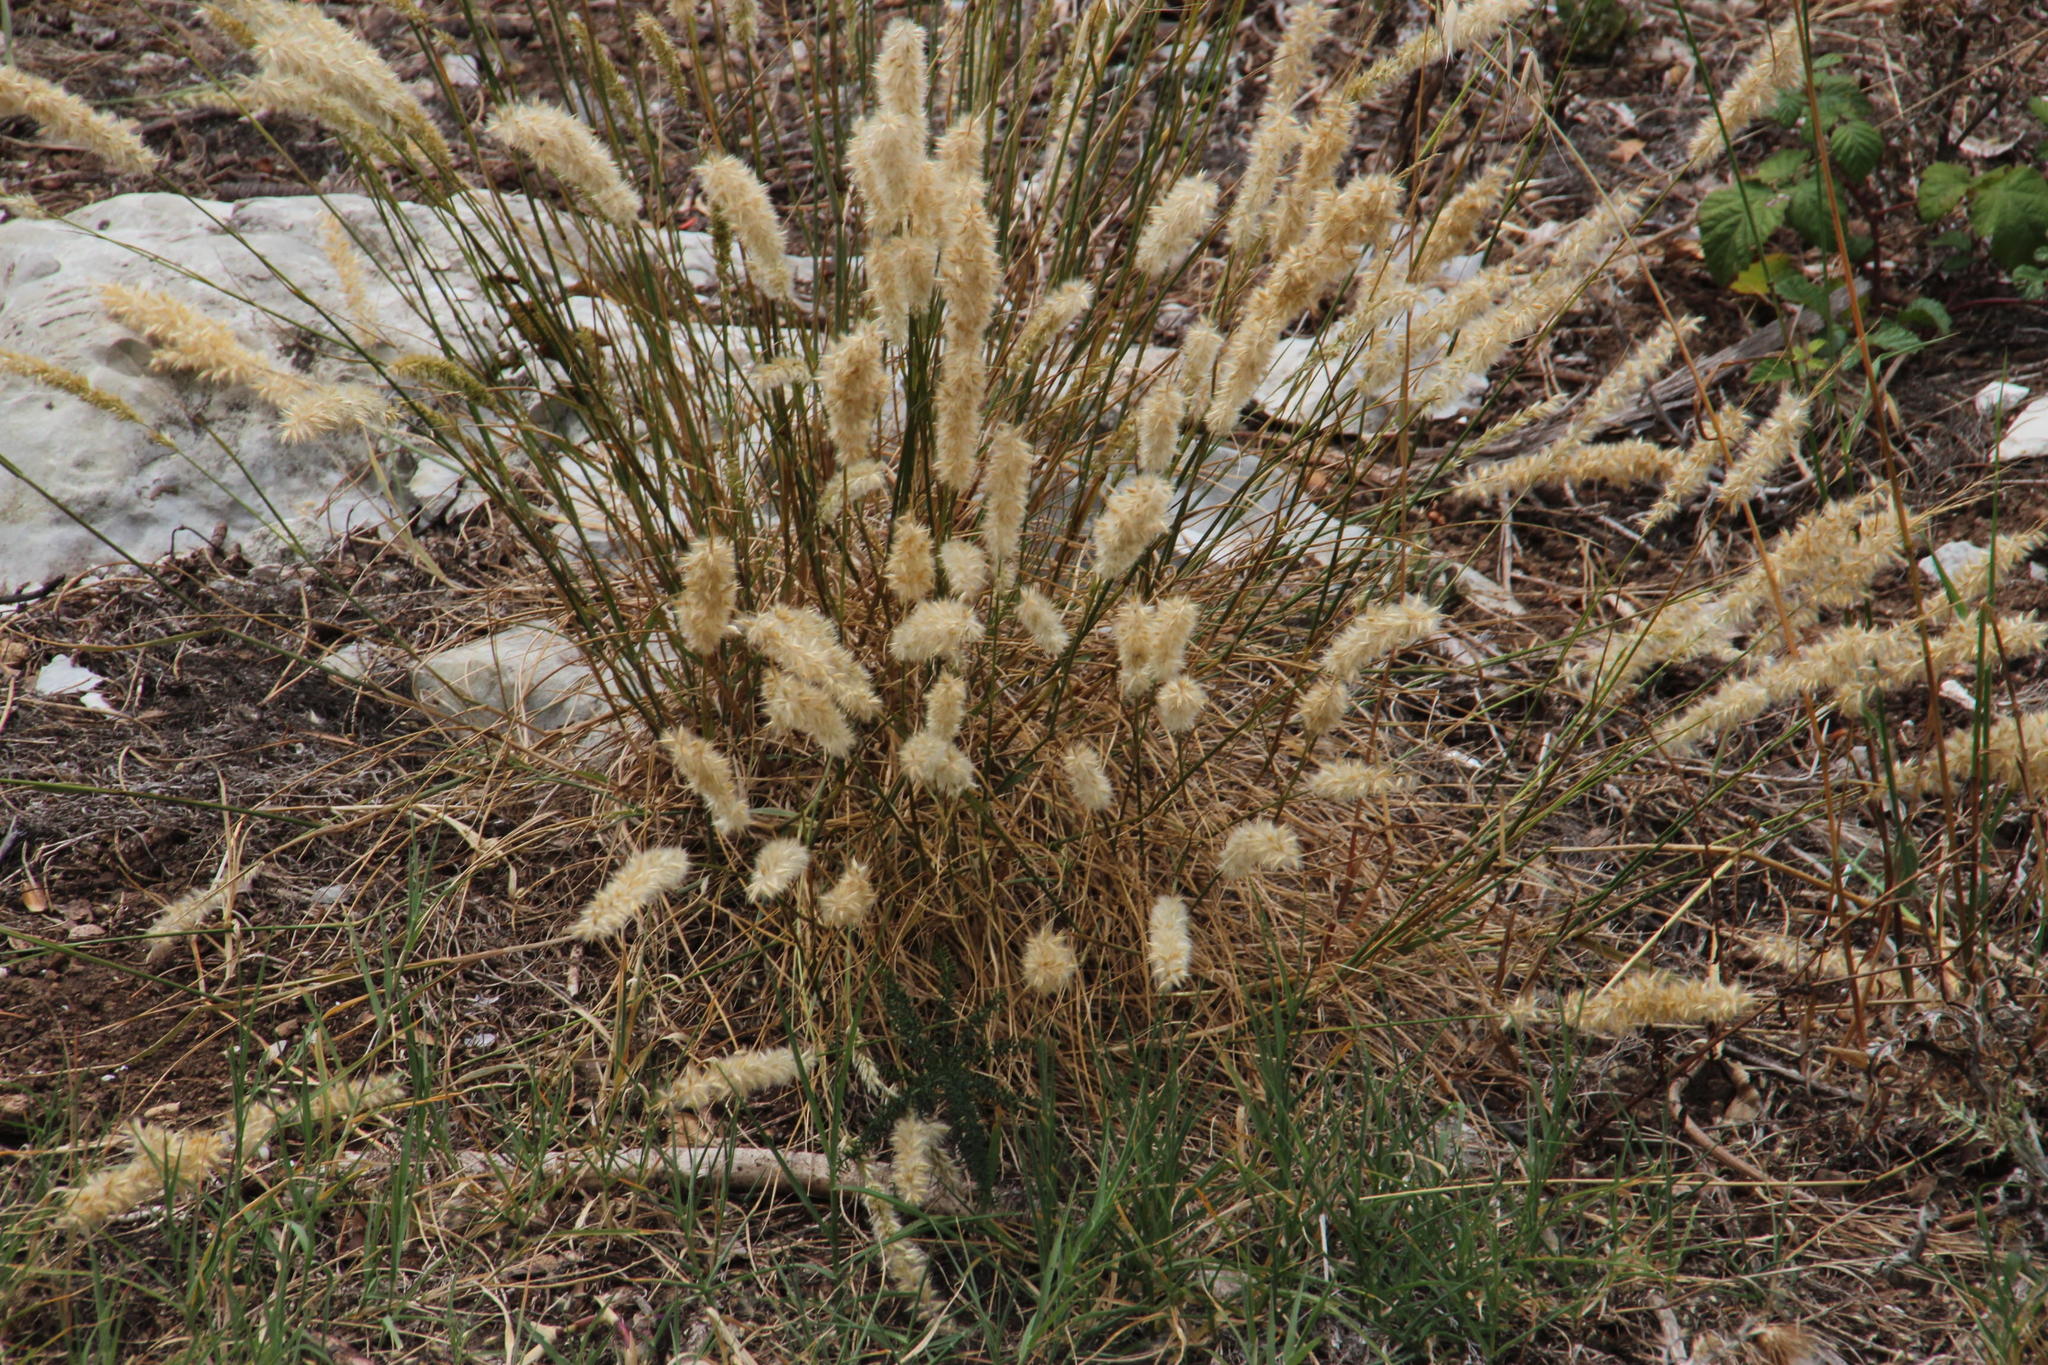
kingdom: Plantae
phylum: Tracheophyta
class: Liliopsida
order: Poales
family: Poaceae
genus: Melica
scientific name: Melica ciliata
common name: Hairy melicgrass
